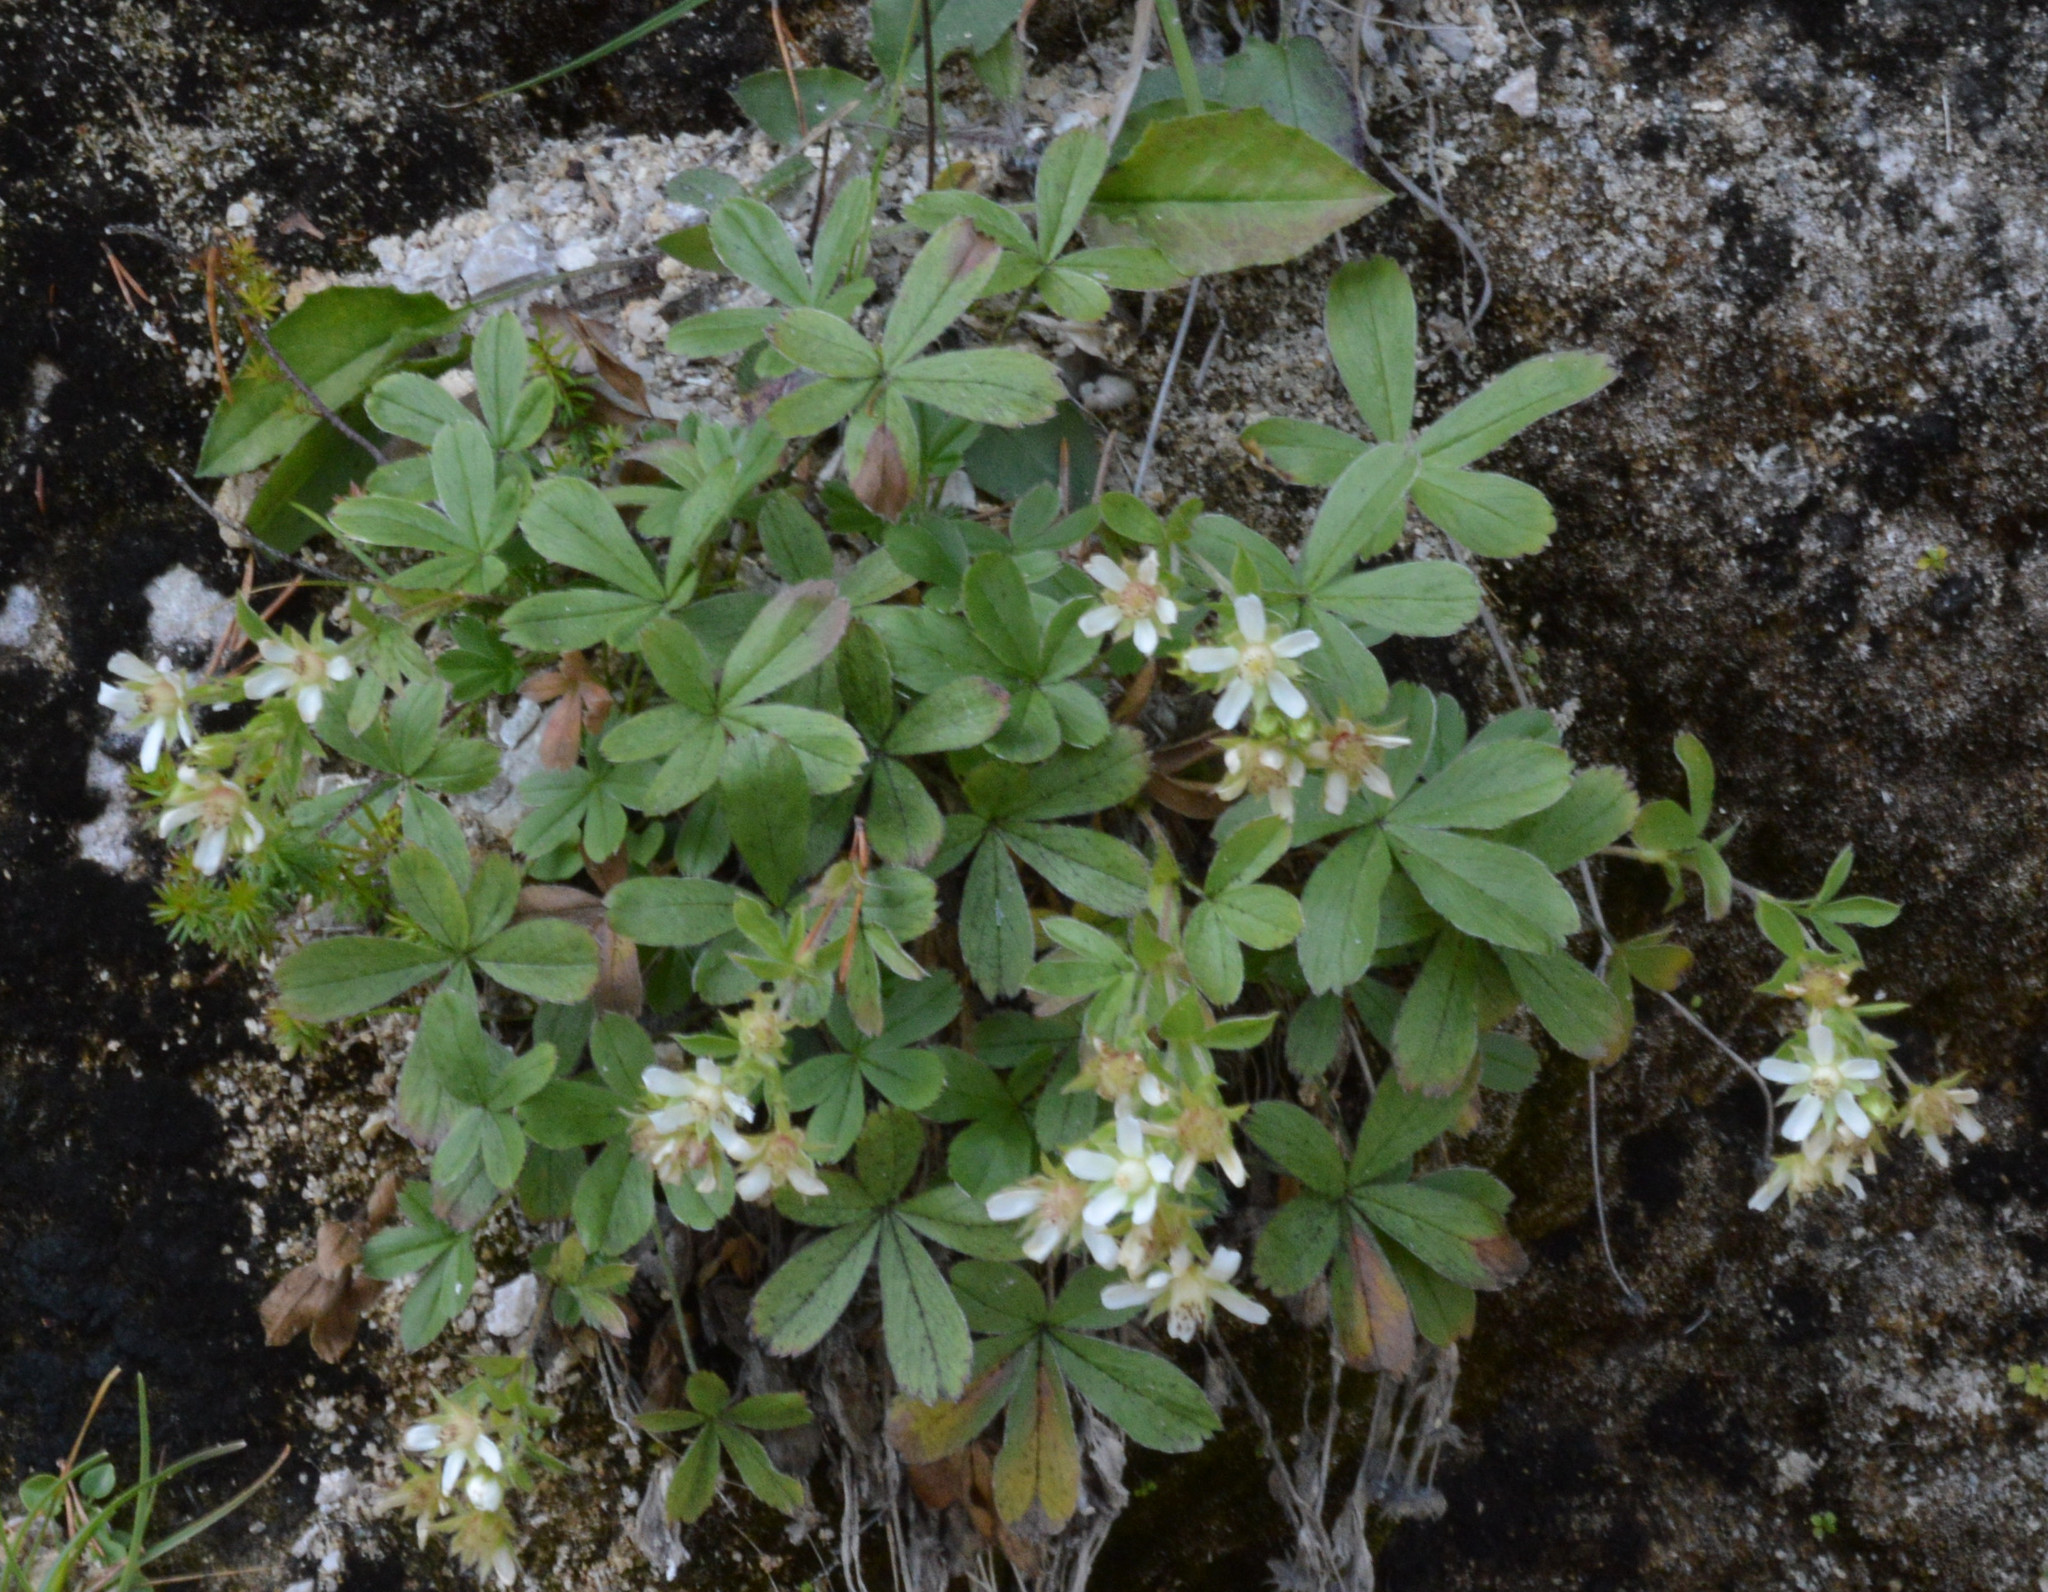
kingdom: Plantae
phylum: Tracheophyta
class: Magnoliopsida
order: Rosales
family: Rosaceae
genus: Potentilla
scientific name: Potentilla caulescens
